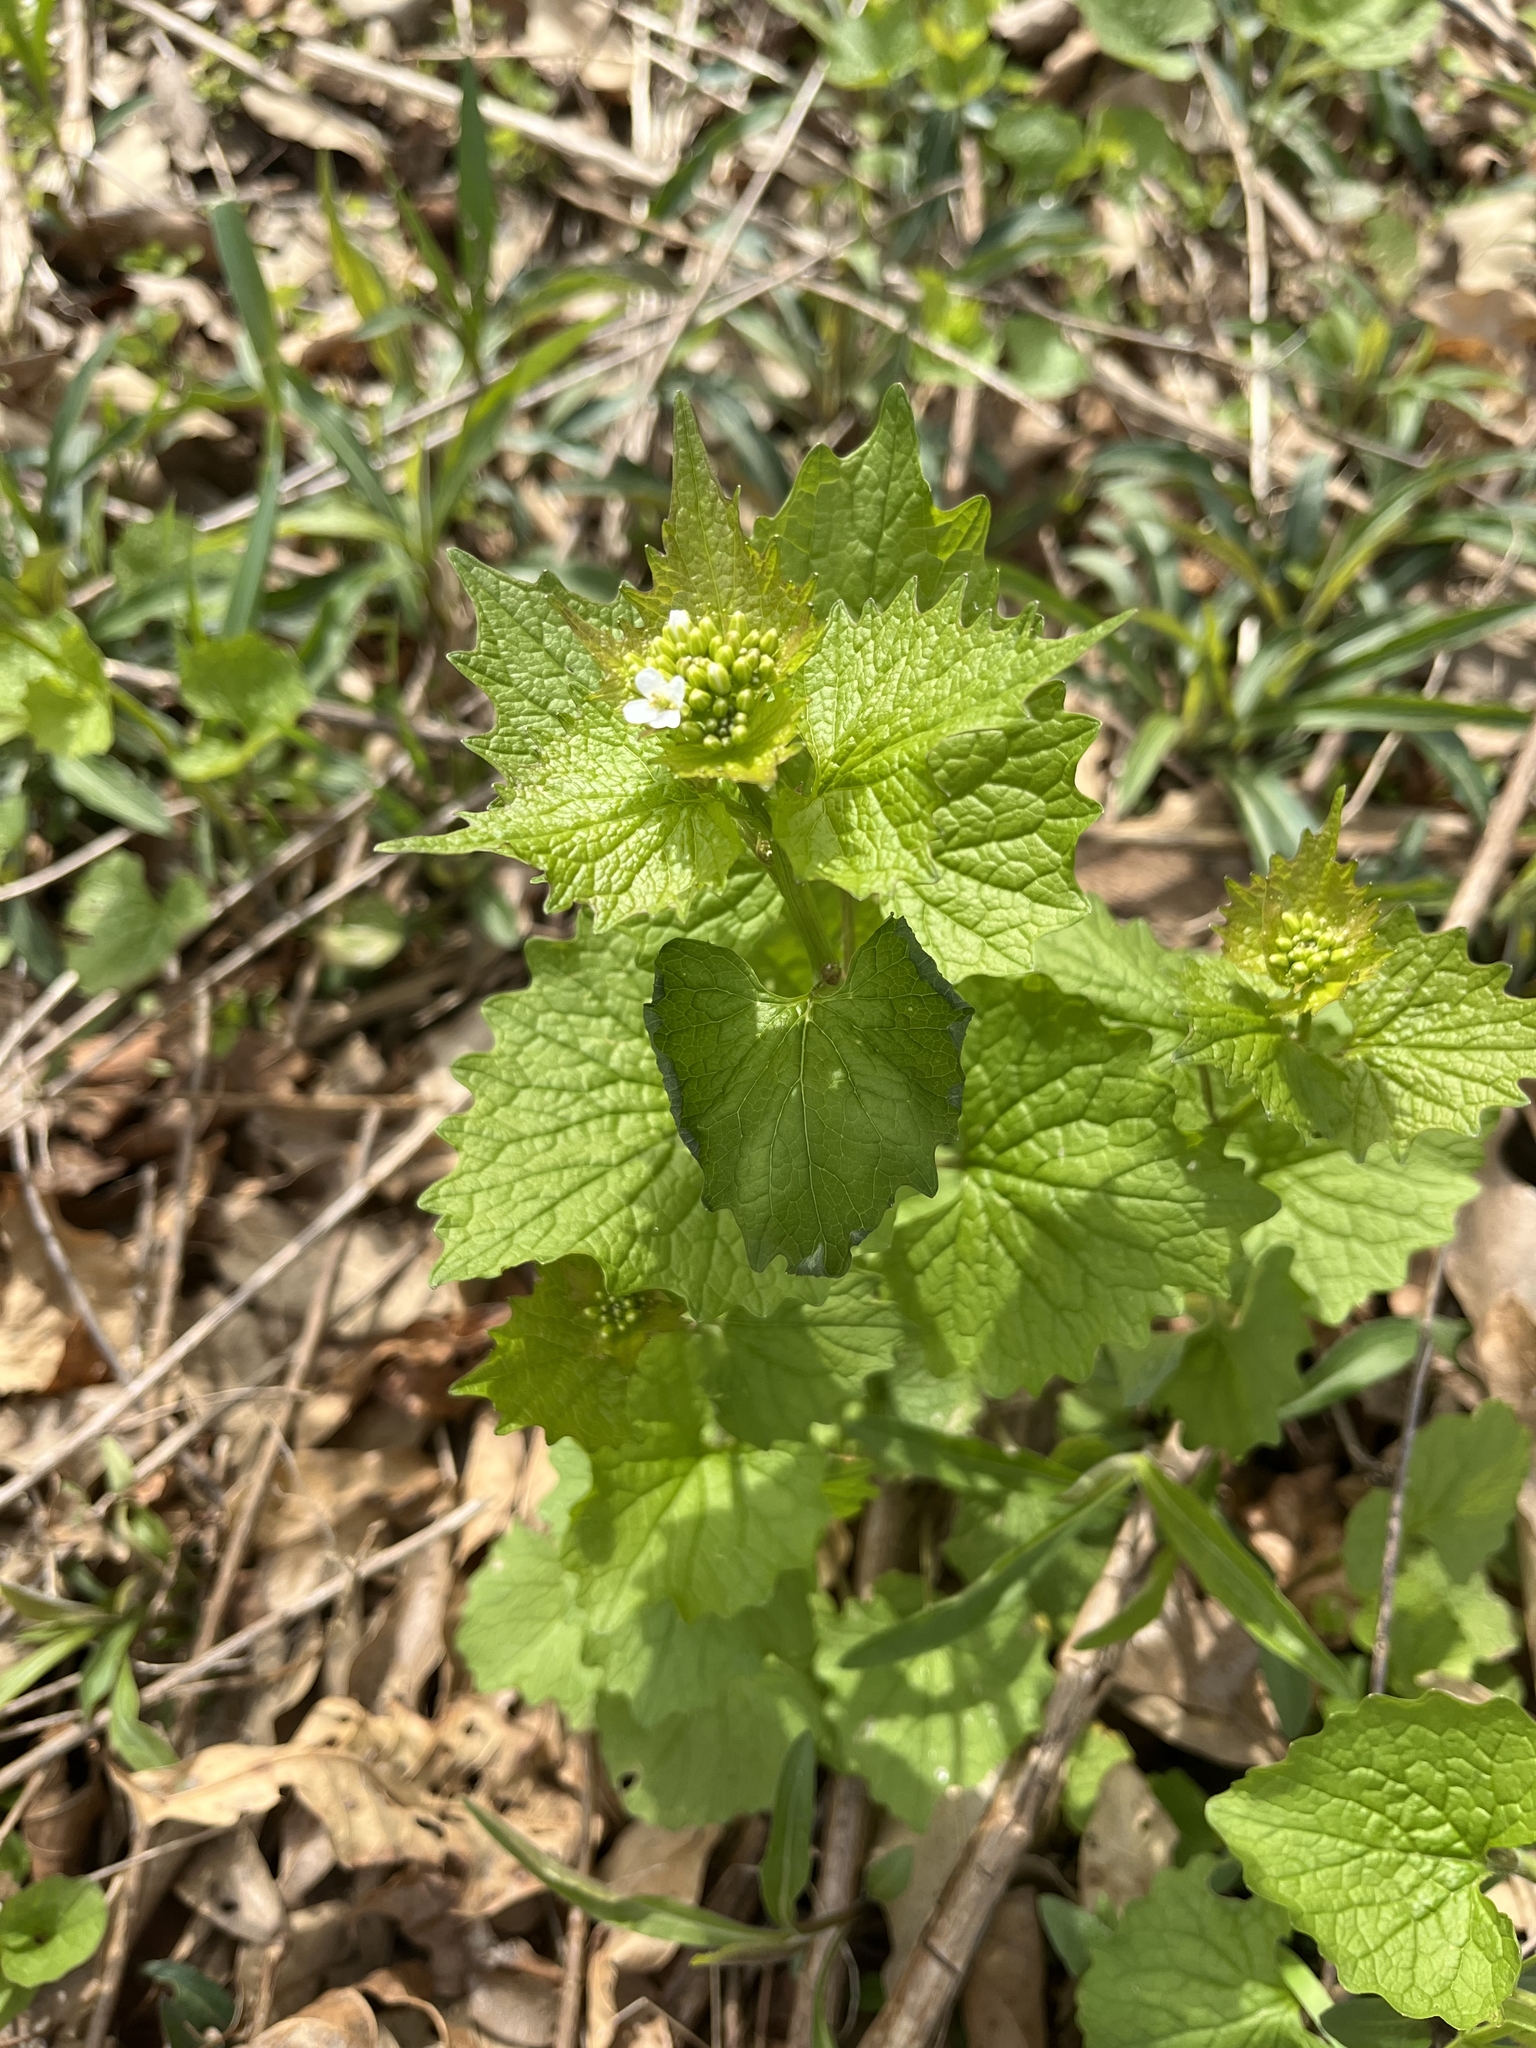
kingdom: Plantae
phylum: Tracheophyta
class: Magnoliopsida
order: Brassicales
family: Brassicaceae
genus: Alliaria
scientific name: Alliaria petiolata
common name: Garlic mustard
